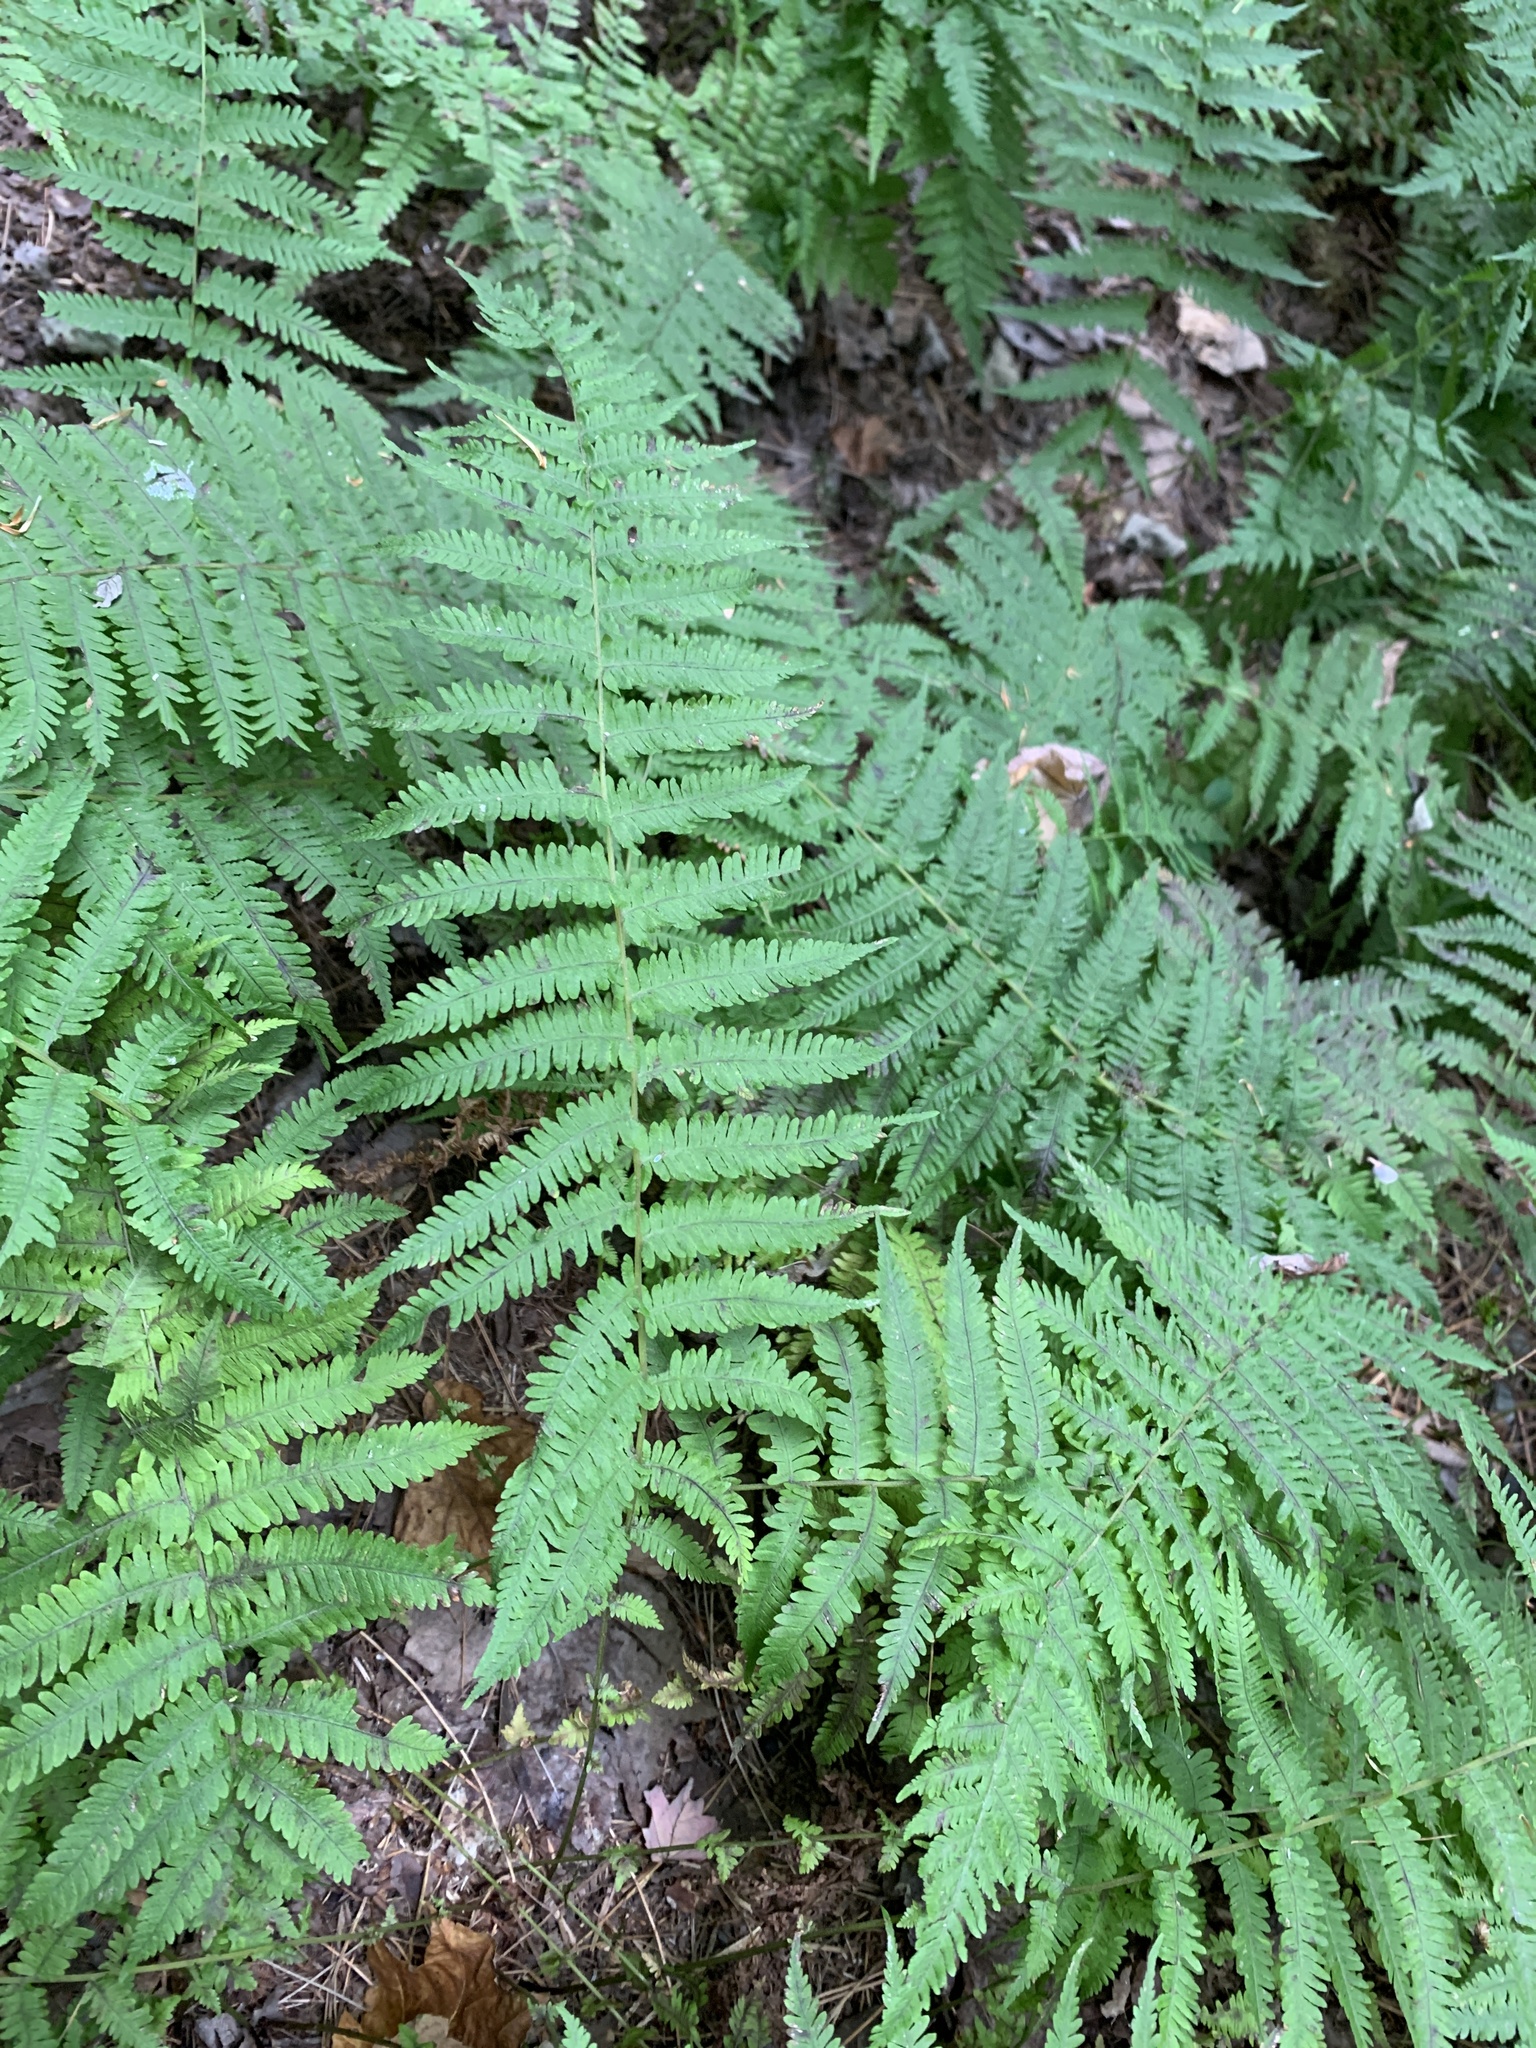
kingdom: Plantae
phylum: Tracheophyta
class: Polypodiopsida
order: Polypodiales
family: Thelypteridaceae
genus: Amauropelta
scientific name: Amauropelta noveboracensis
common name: New york fern
